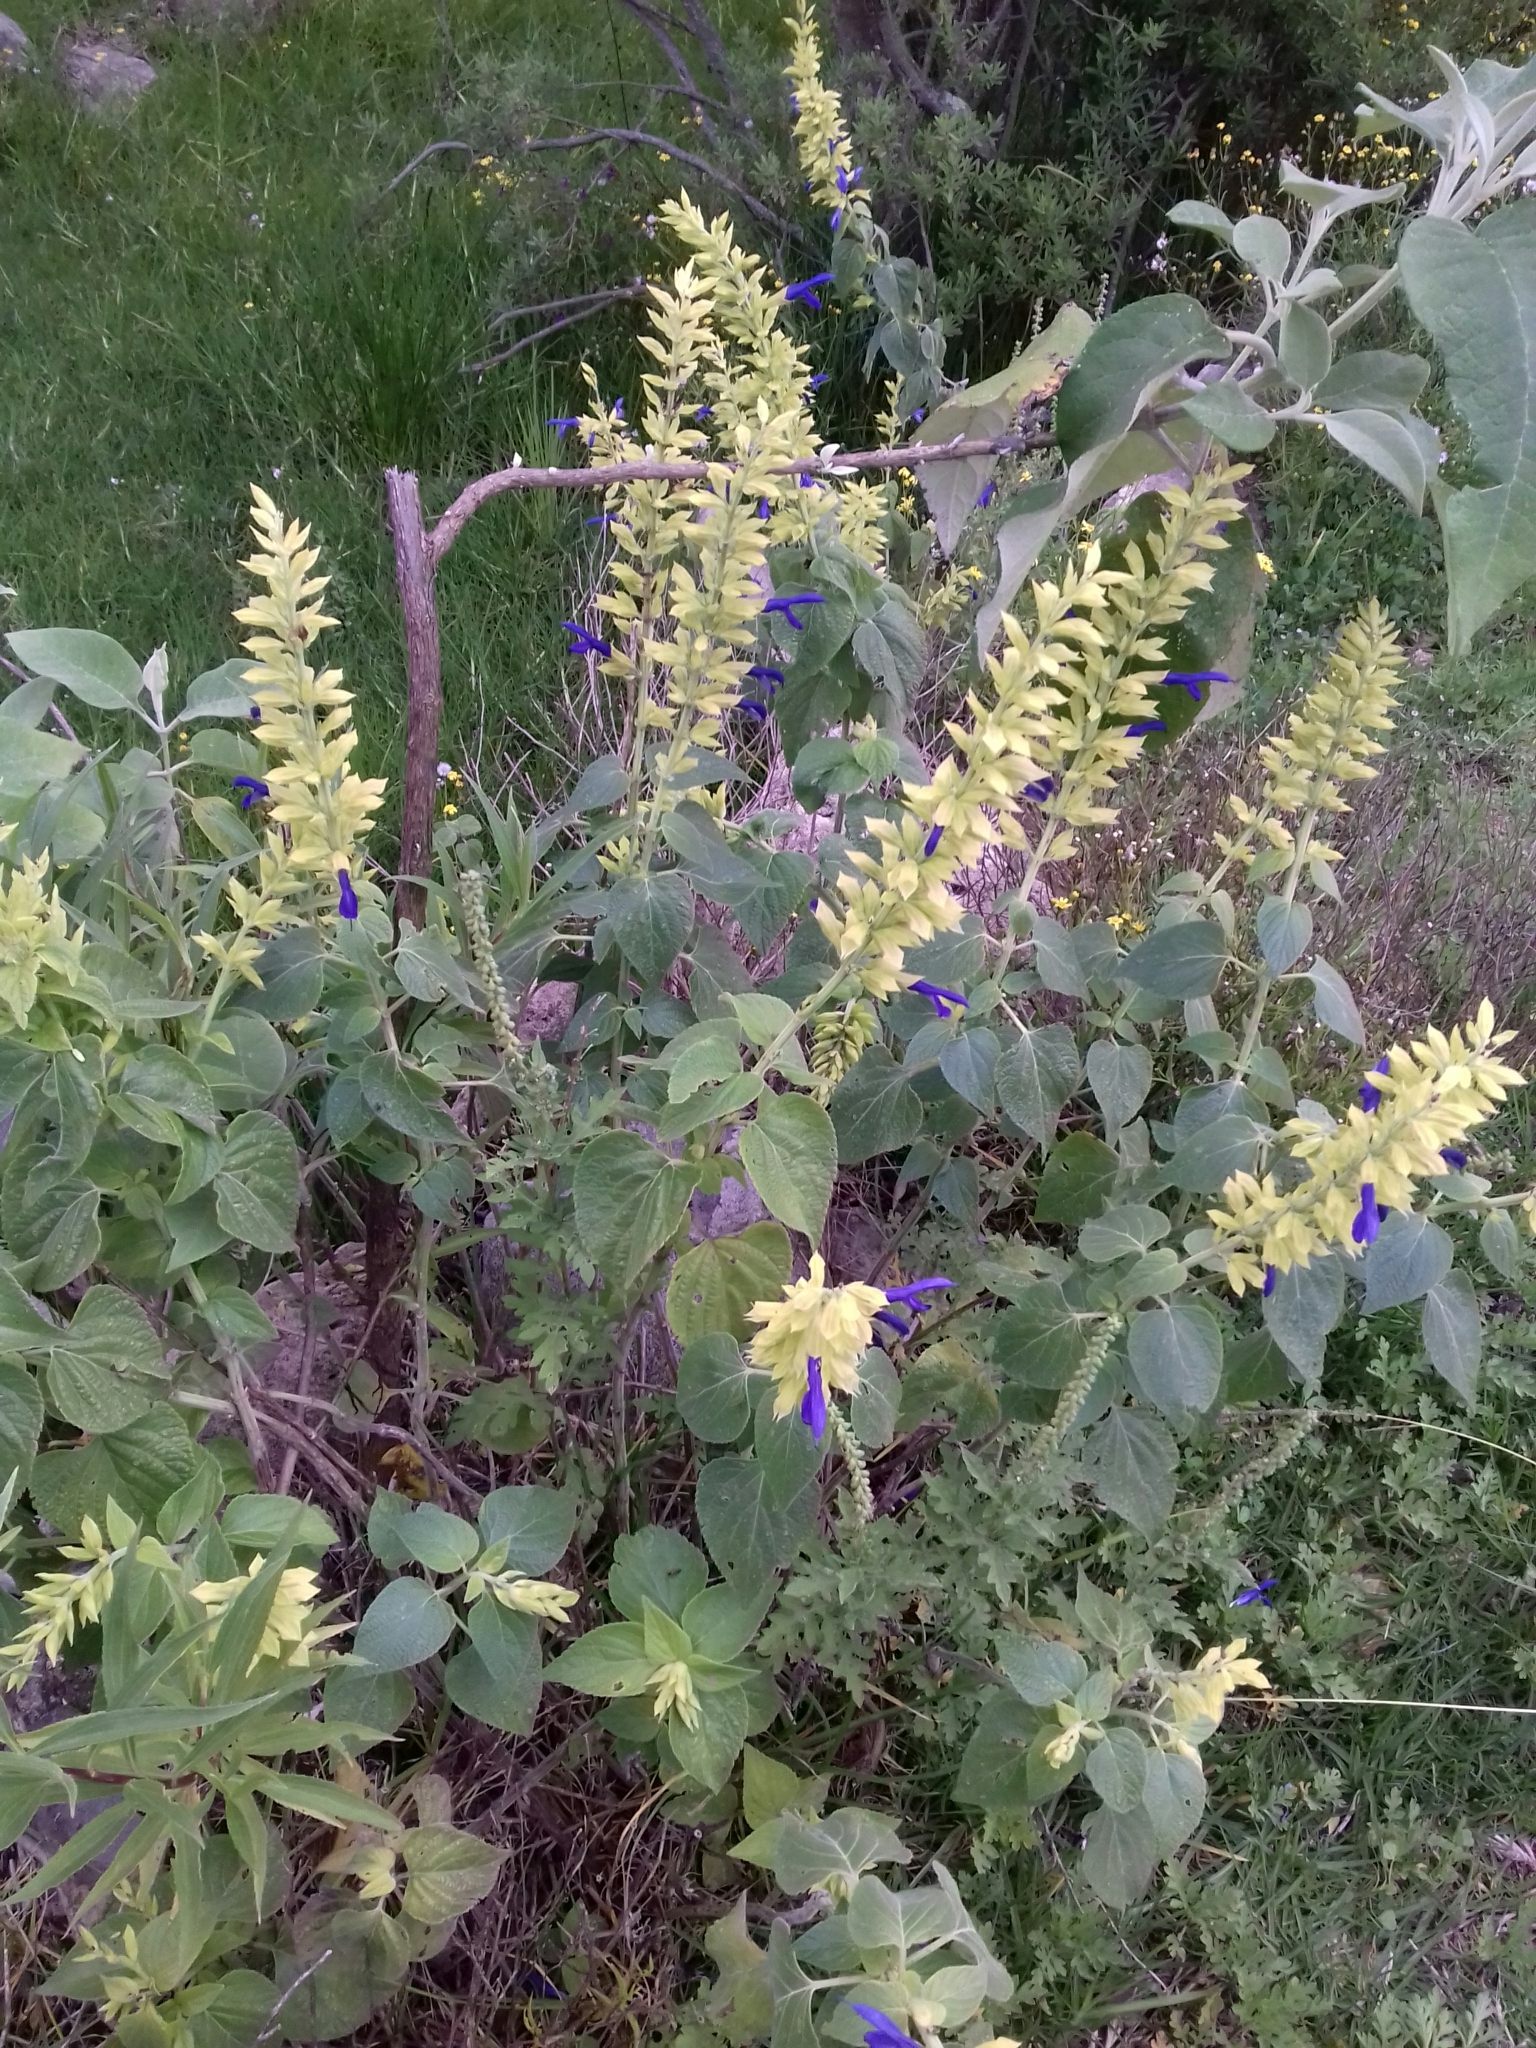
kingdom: Plantae
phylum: Tracheophyta
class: Magnoliopsida
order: Lamiales
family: Lamiaceae
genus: Salvia
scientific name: Salvia mexicana
